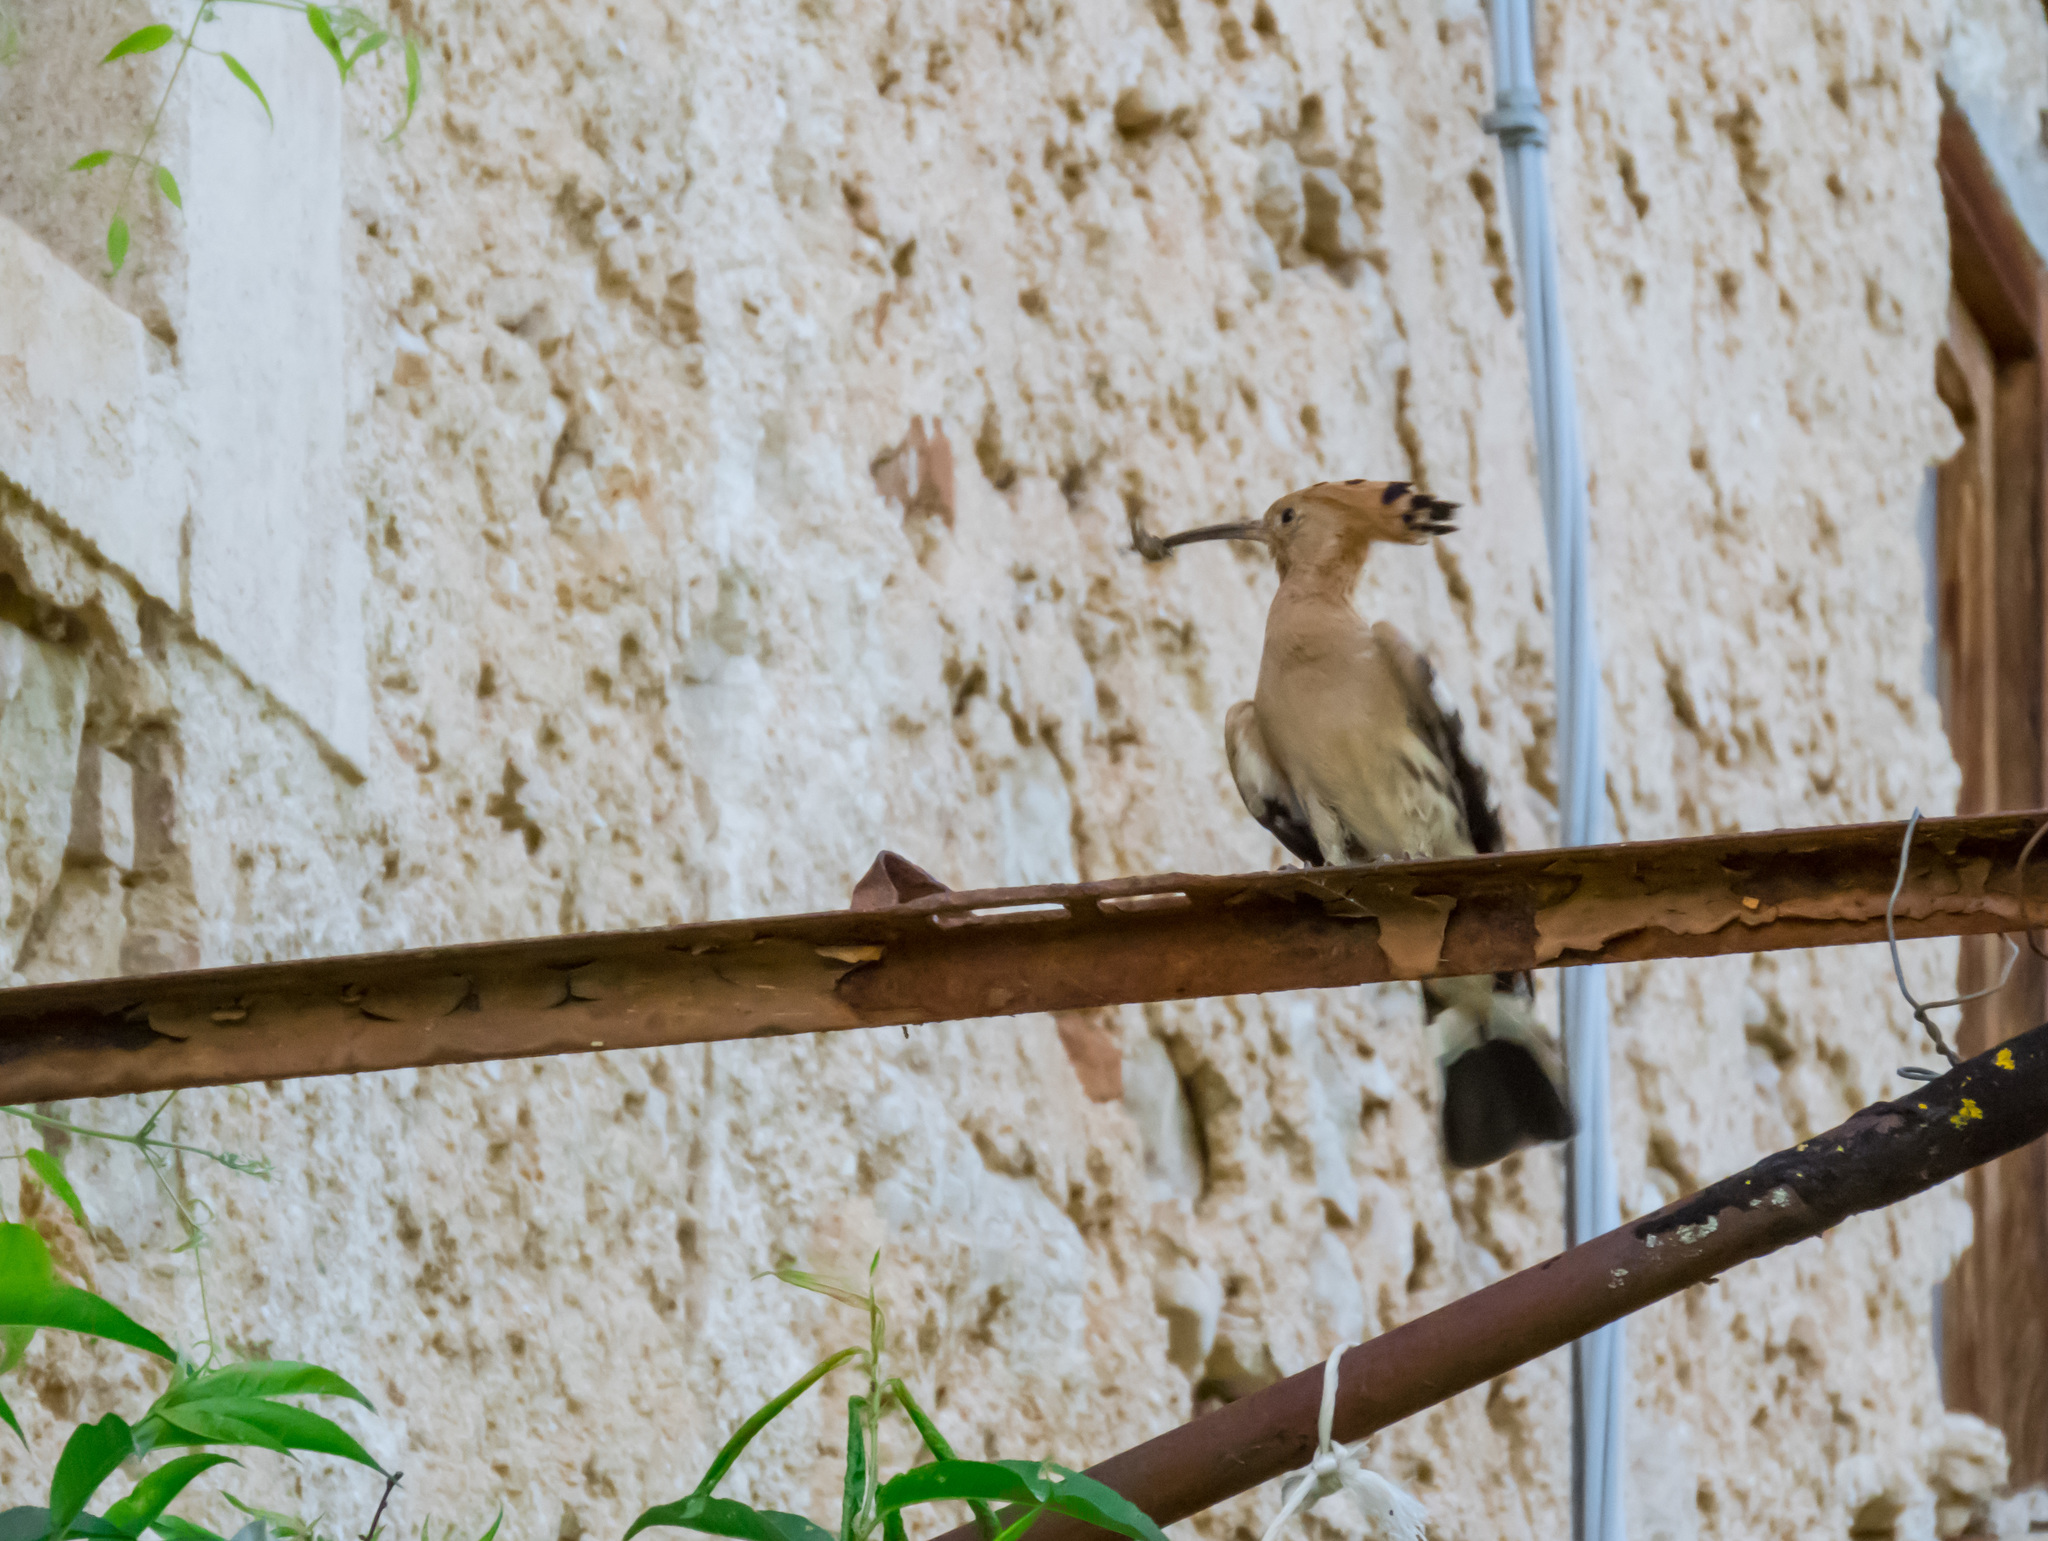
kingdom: Animalia
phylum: Chordata
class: Aves
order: Bucerotiformes
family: Upupidae
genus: Upupa
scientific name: Upupa epops
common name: Eurasian hoopoe
